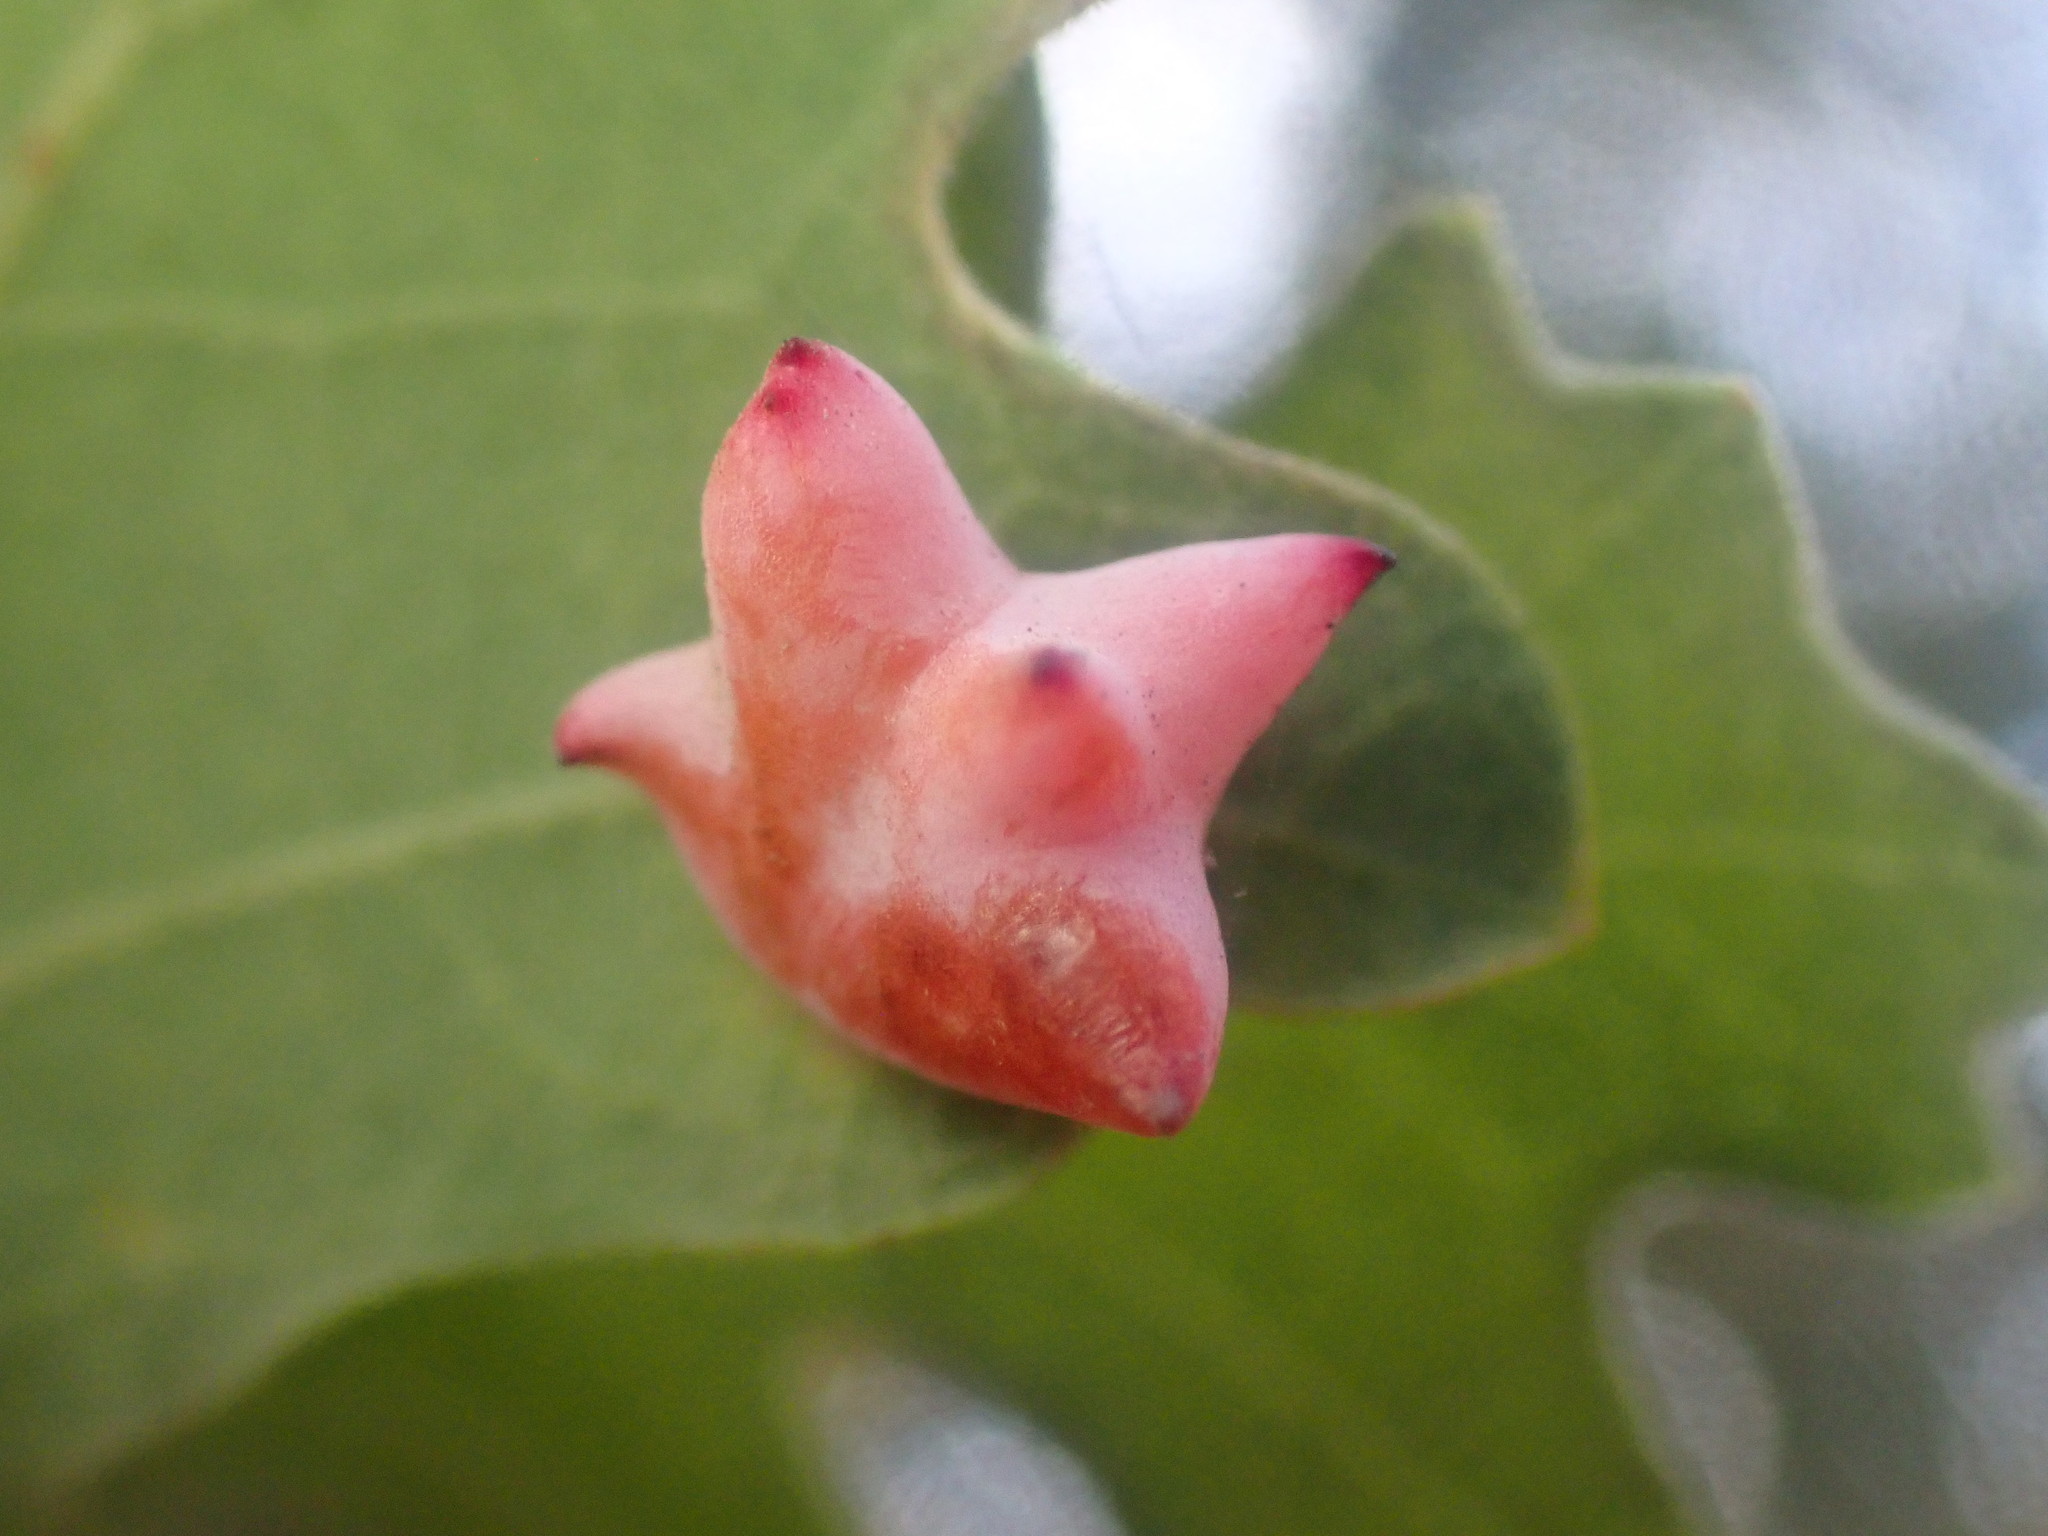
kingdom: Animalia
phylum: Arthropoda
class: Insecta
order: Hymenoptera
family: Cynipidae
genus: Cynips
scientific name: Cynips douglasi
